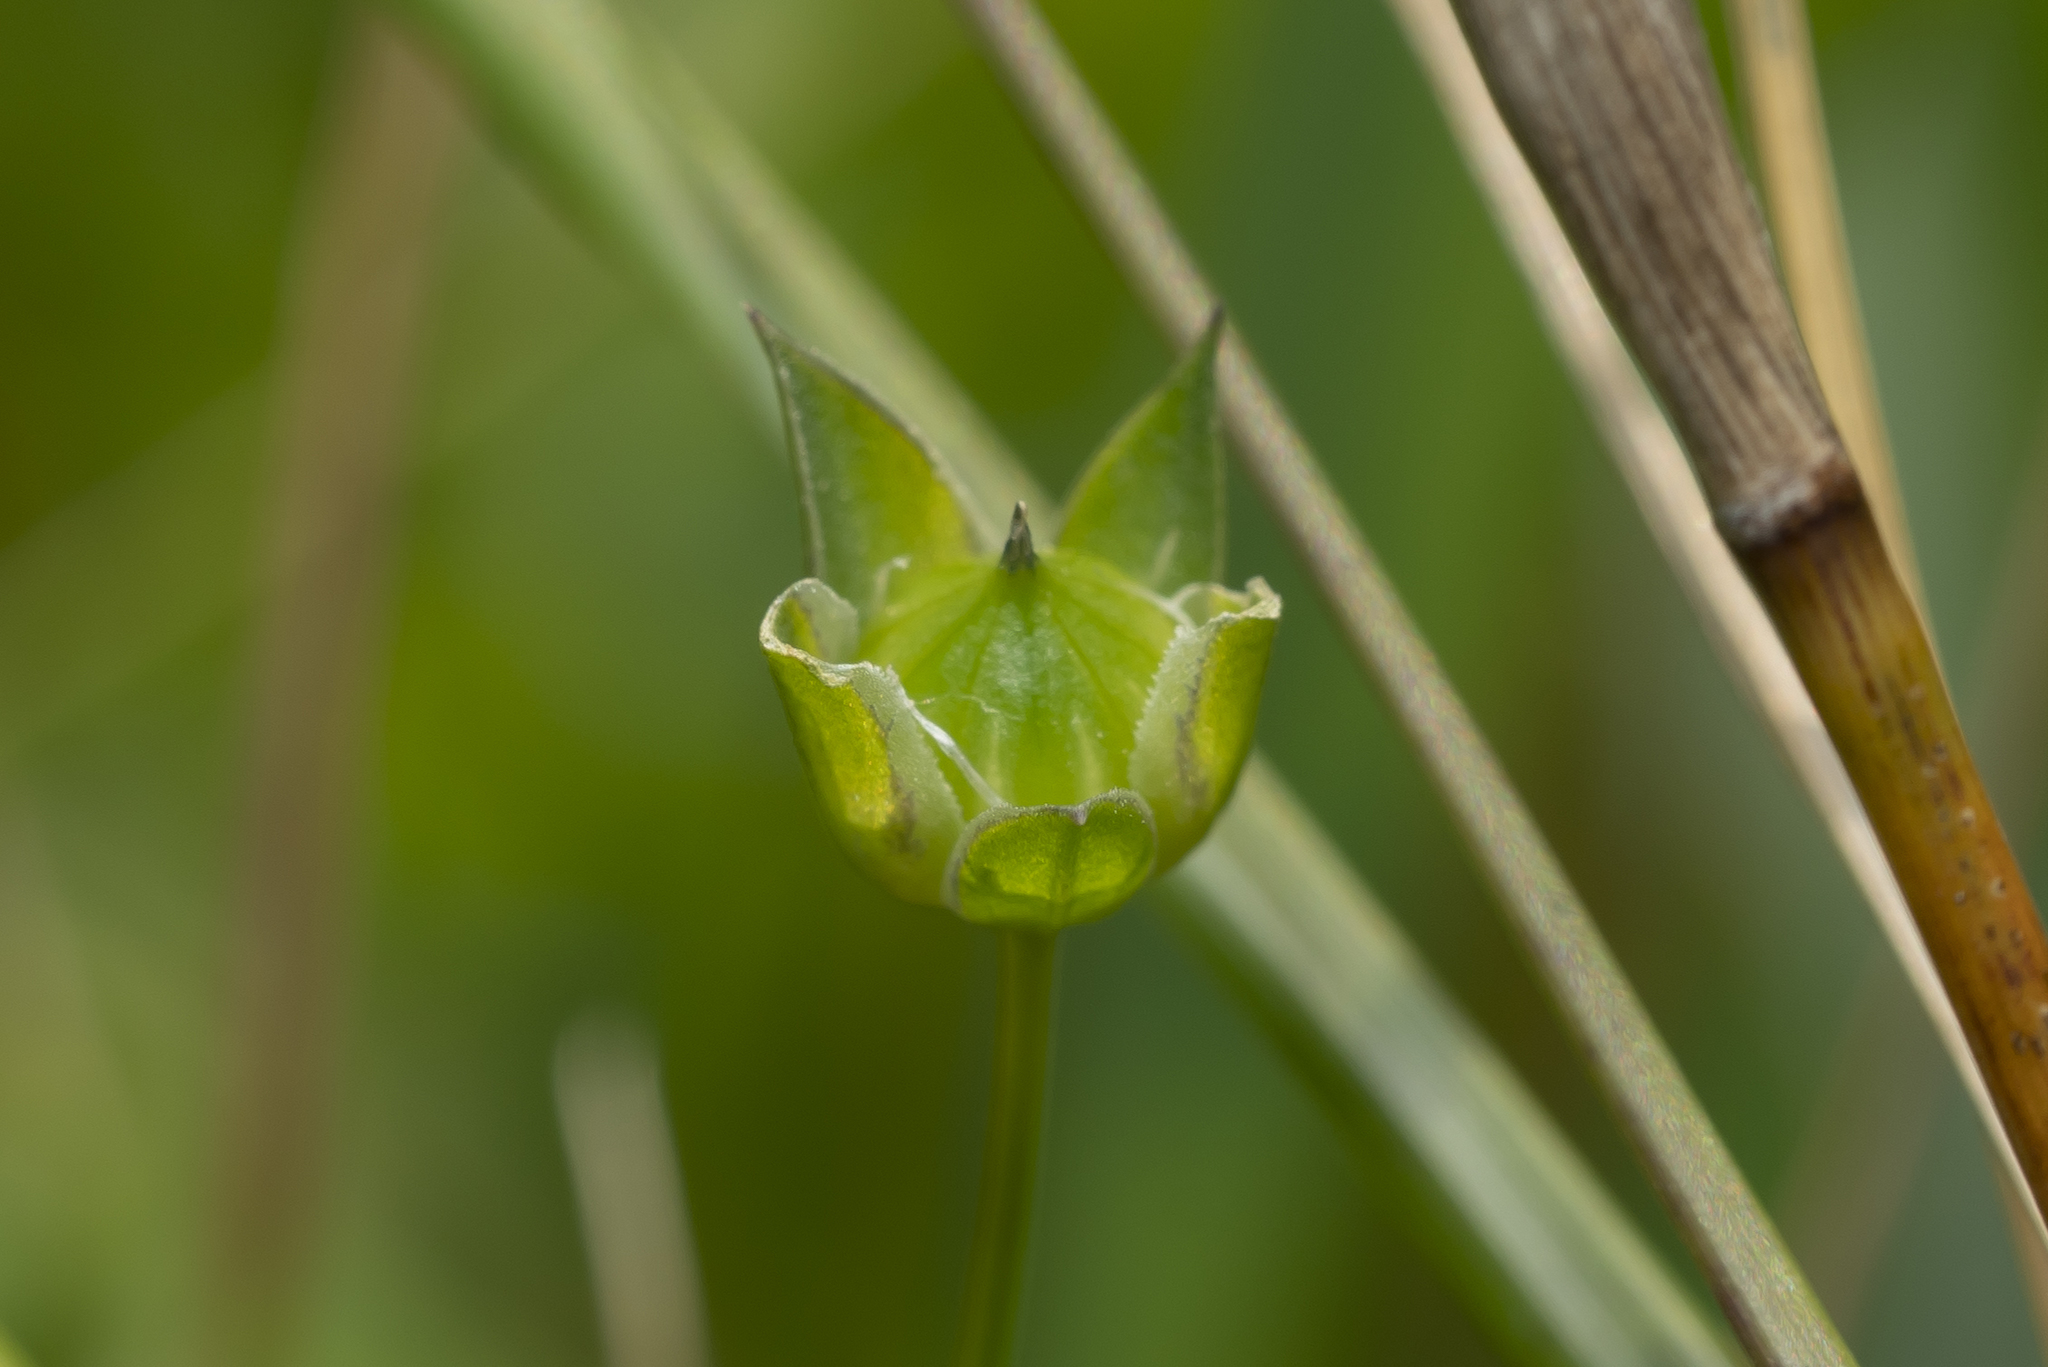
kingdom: Plantae
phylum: Tracheophyta
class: Magnoliopsida
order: Malpighiales
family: Linaceae
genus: Linum
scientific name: Linum bienne
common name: Pale flax
